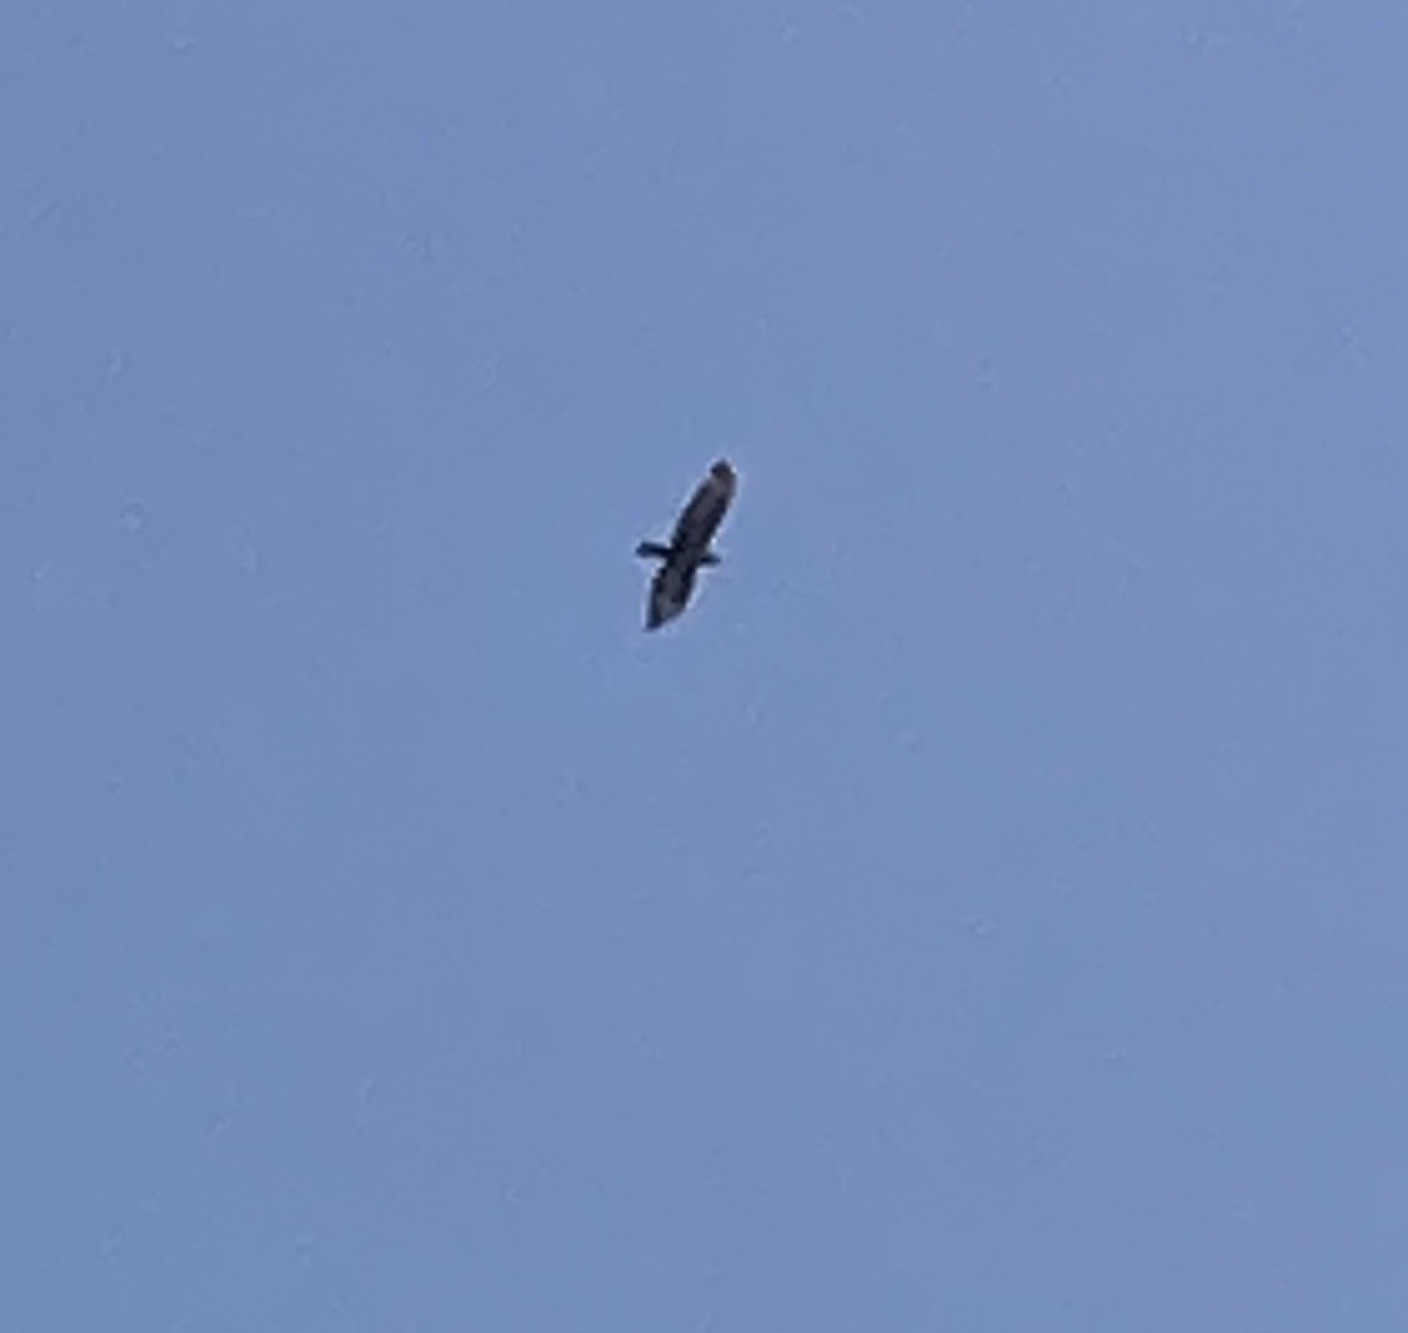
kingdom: Animalia
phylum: Chordata
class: Aves
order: Accipitriformes
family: Accipitridae
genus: Buteo
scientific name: Buteo buteo
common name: Common buzzard
